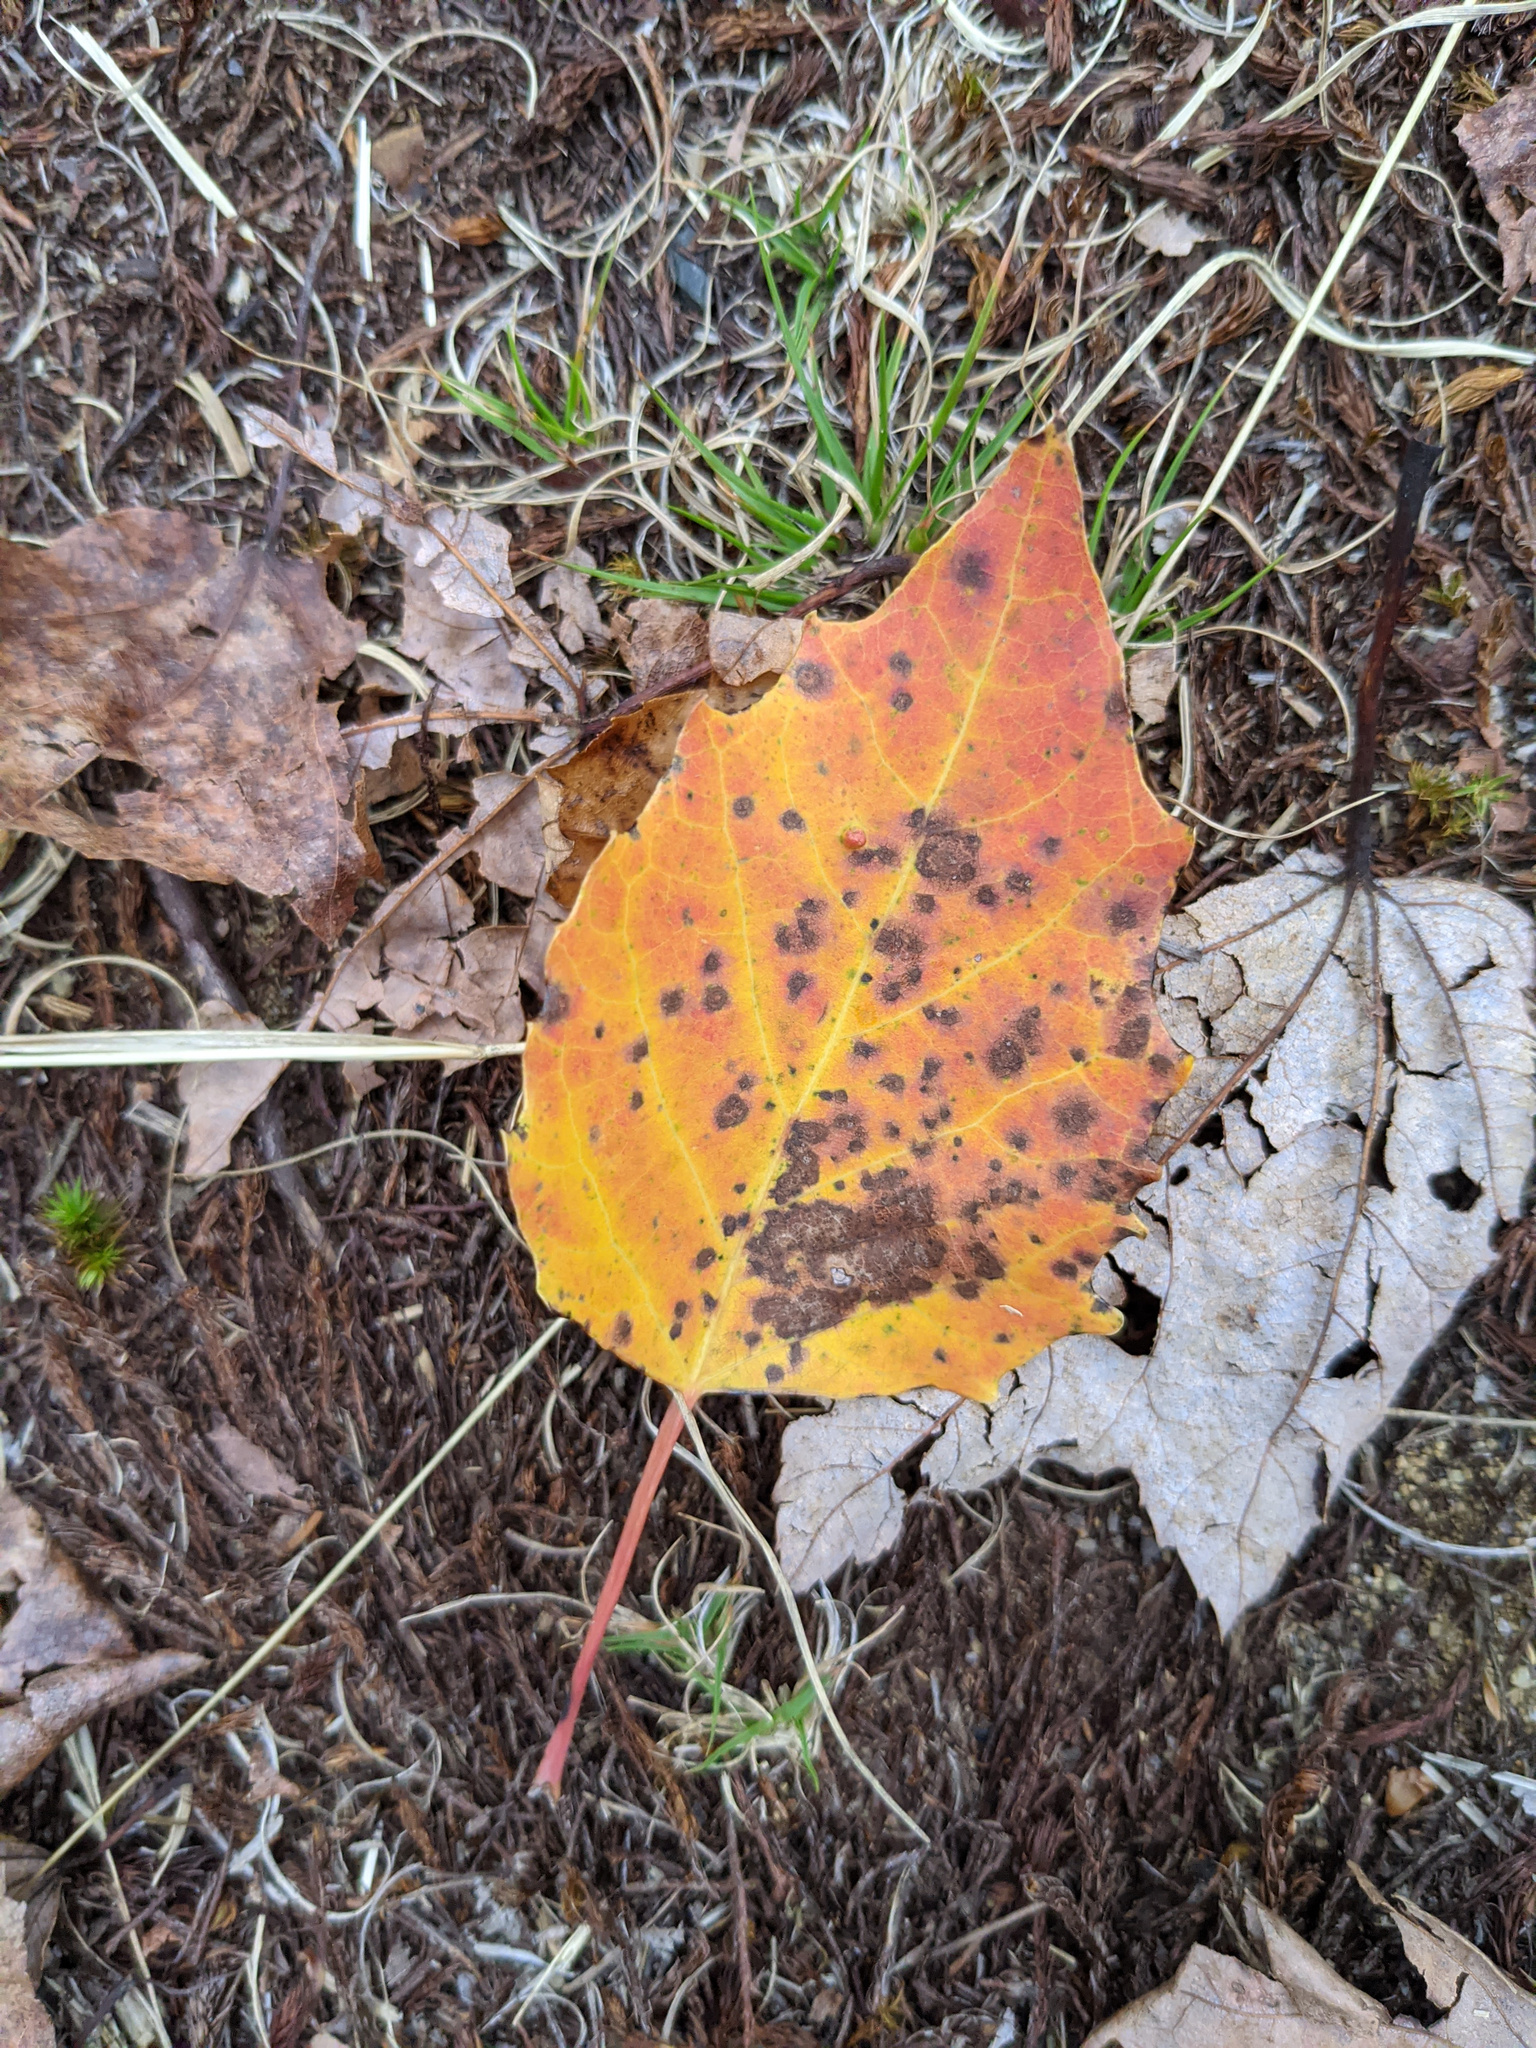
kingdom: Plantae
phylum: Tracheophyta
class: Magnoliopsida
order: Malpighiales
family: Salicaceae
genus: Populus
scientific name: Populus grandidentata
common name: Bigtooth aspen
